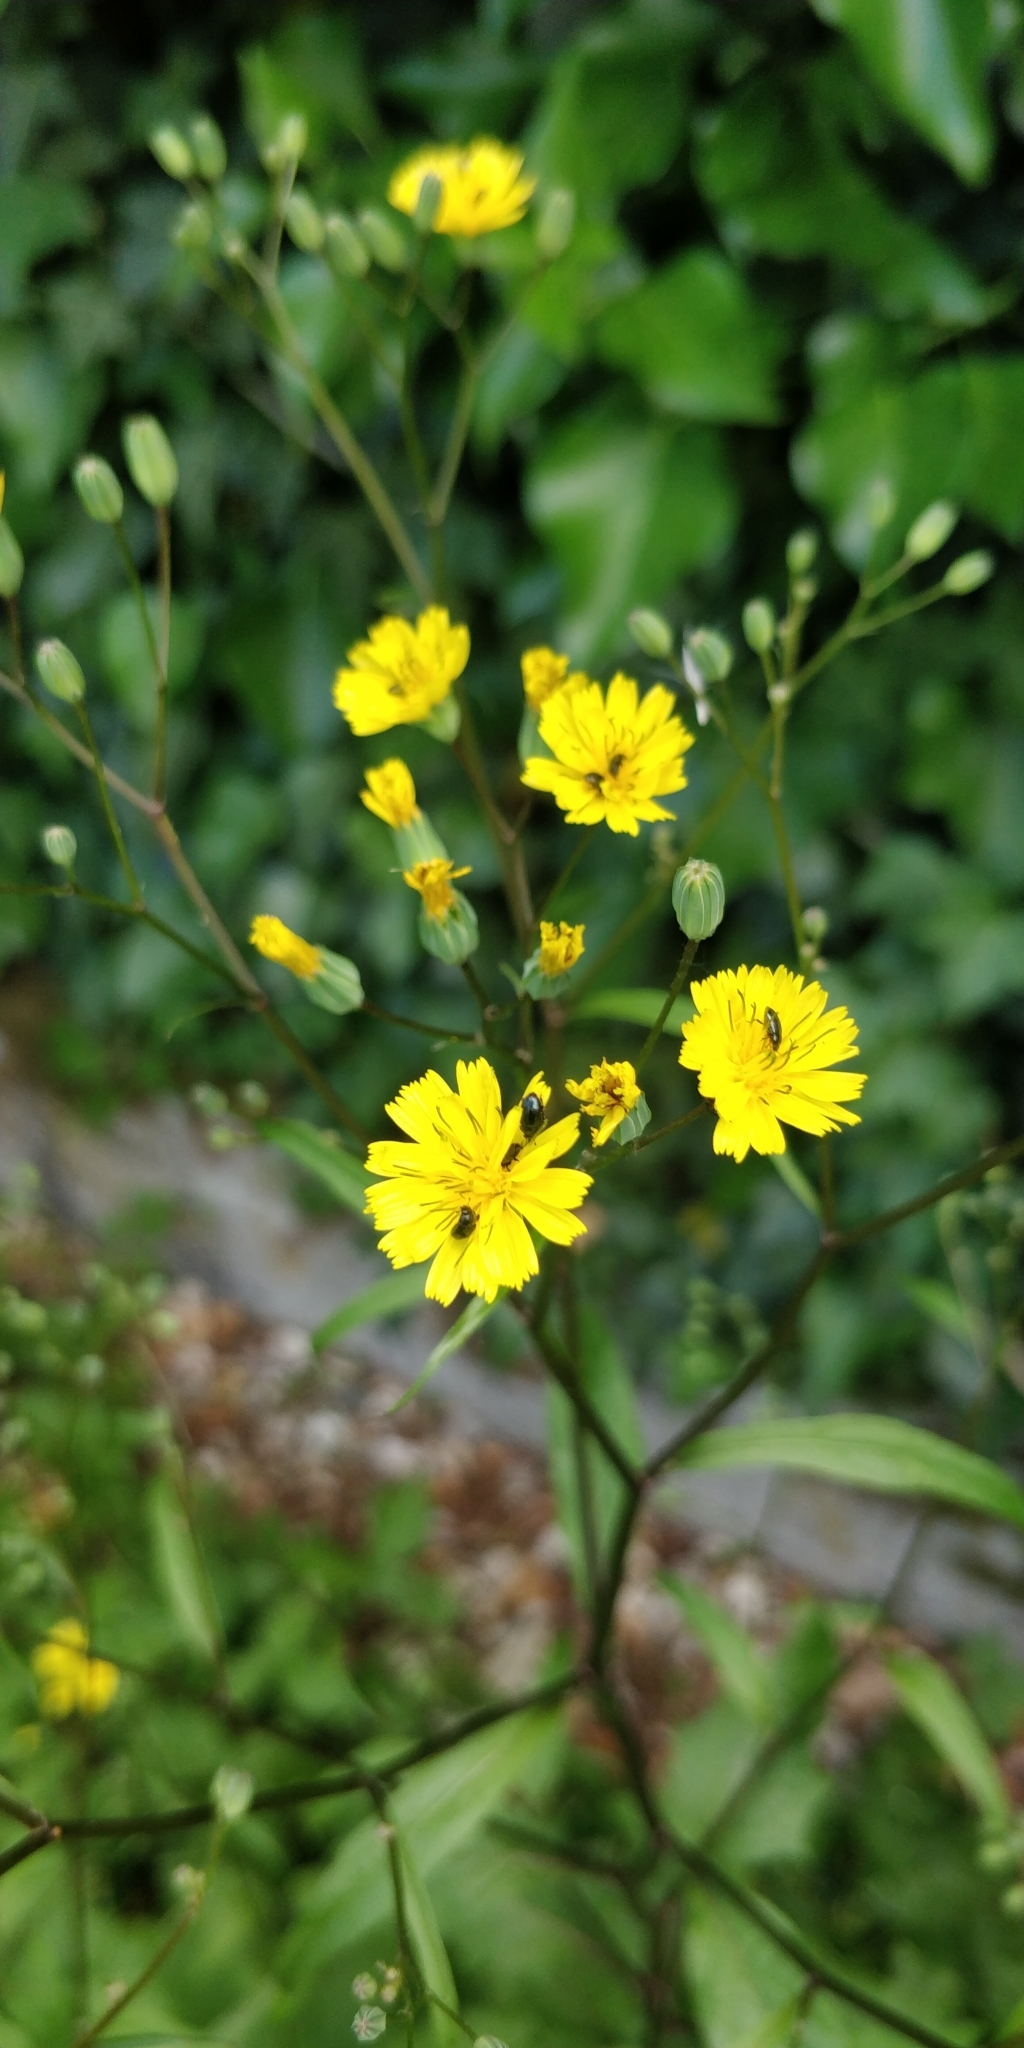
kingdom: Plantae
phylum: Tracheophyta
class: Magnoliopsida
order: Asterales
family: Asteraceae
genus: Lapsana
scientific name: Lapsana communis
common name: Nipplewort
